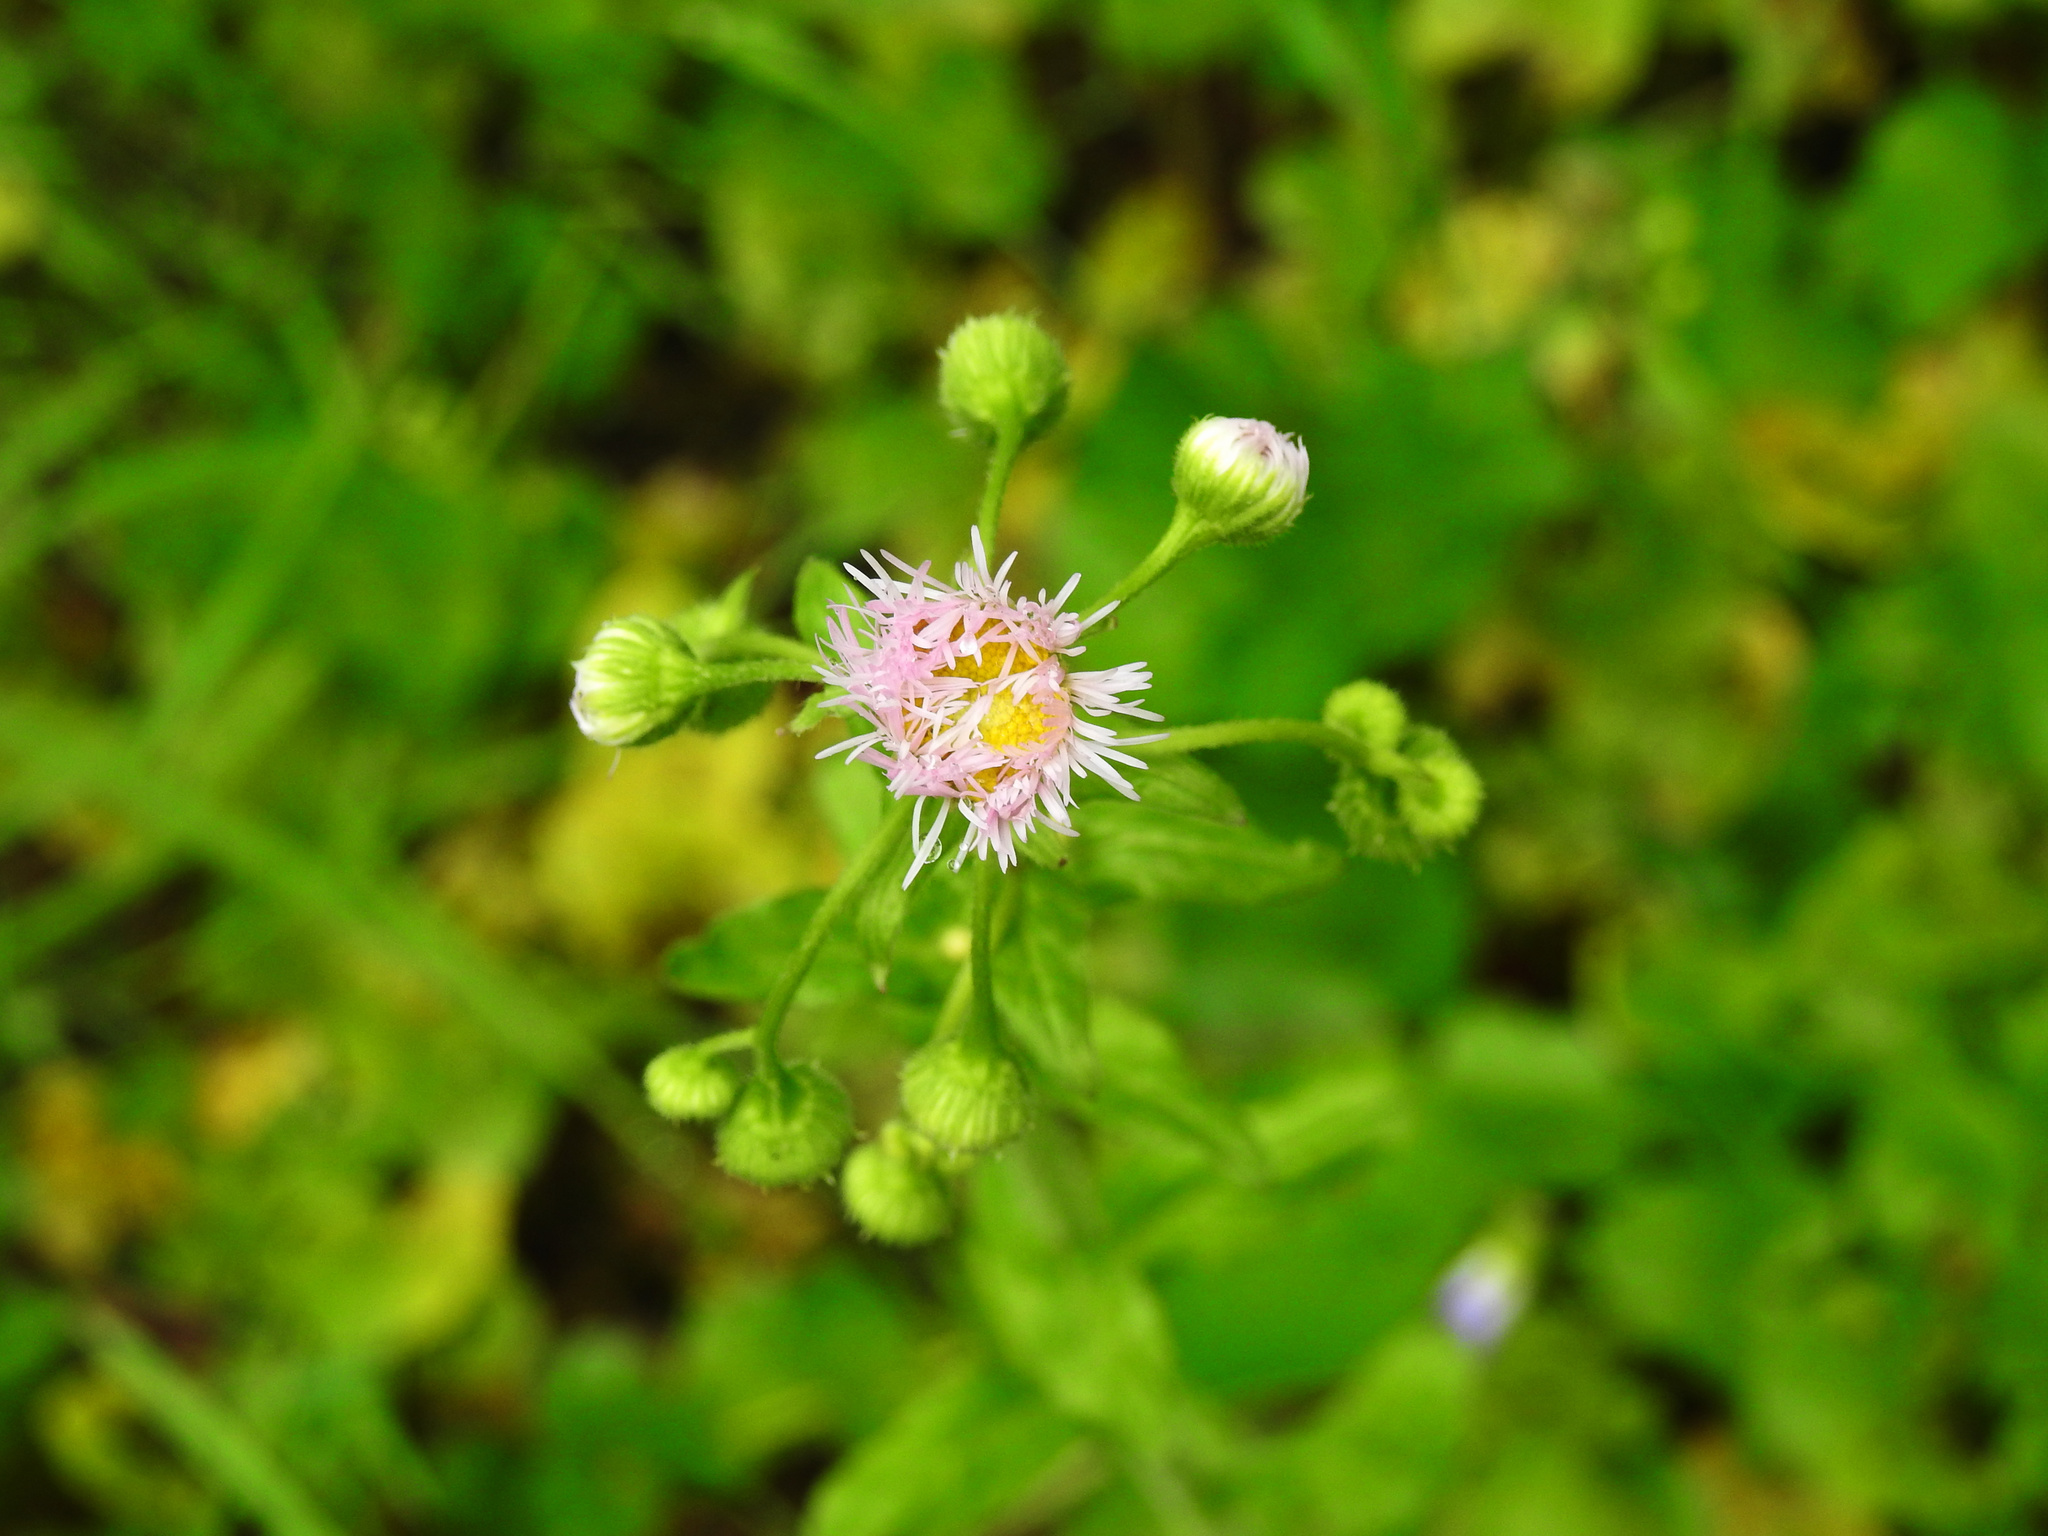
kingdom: Plantae
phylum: Tracheophyta
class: Magnoliopsida
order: Asterales
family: Asteraceae
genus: Erigeron
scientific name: Erigeron philadelphicus
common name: Robin's-plantain
